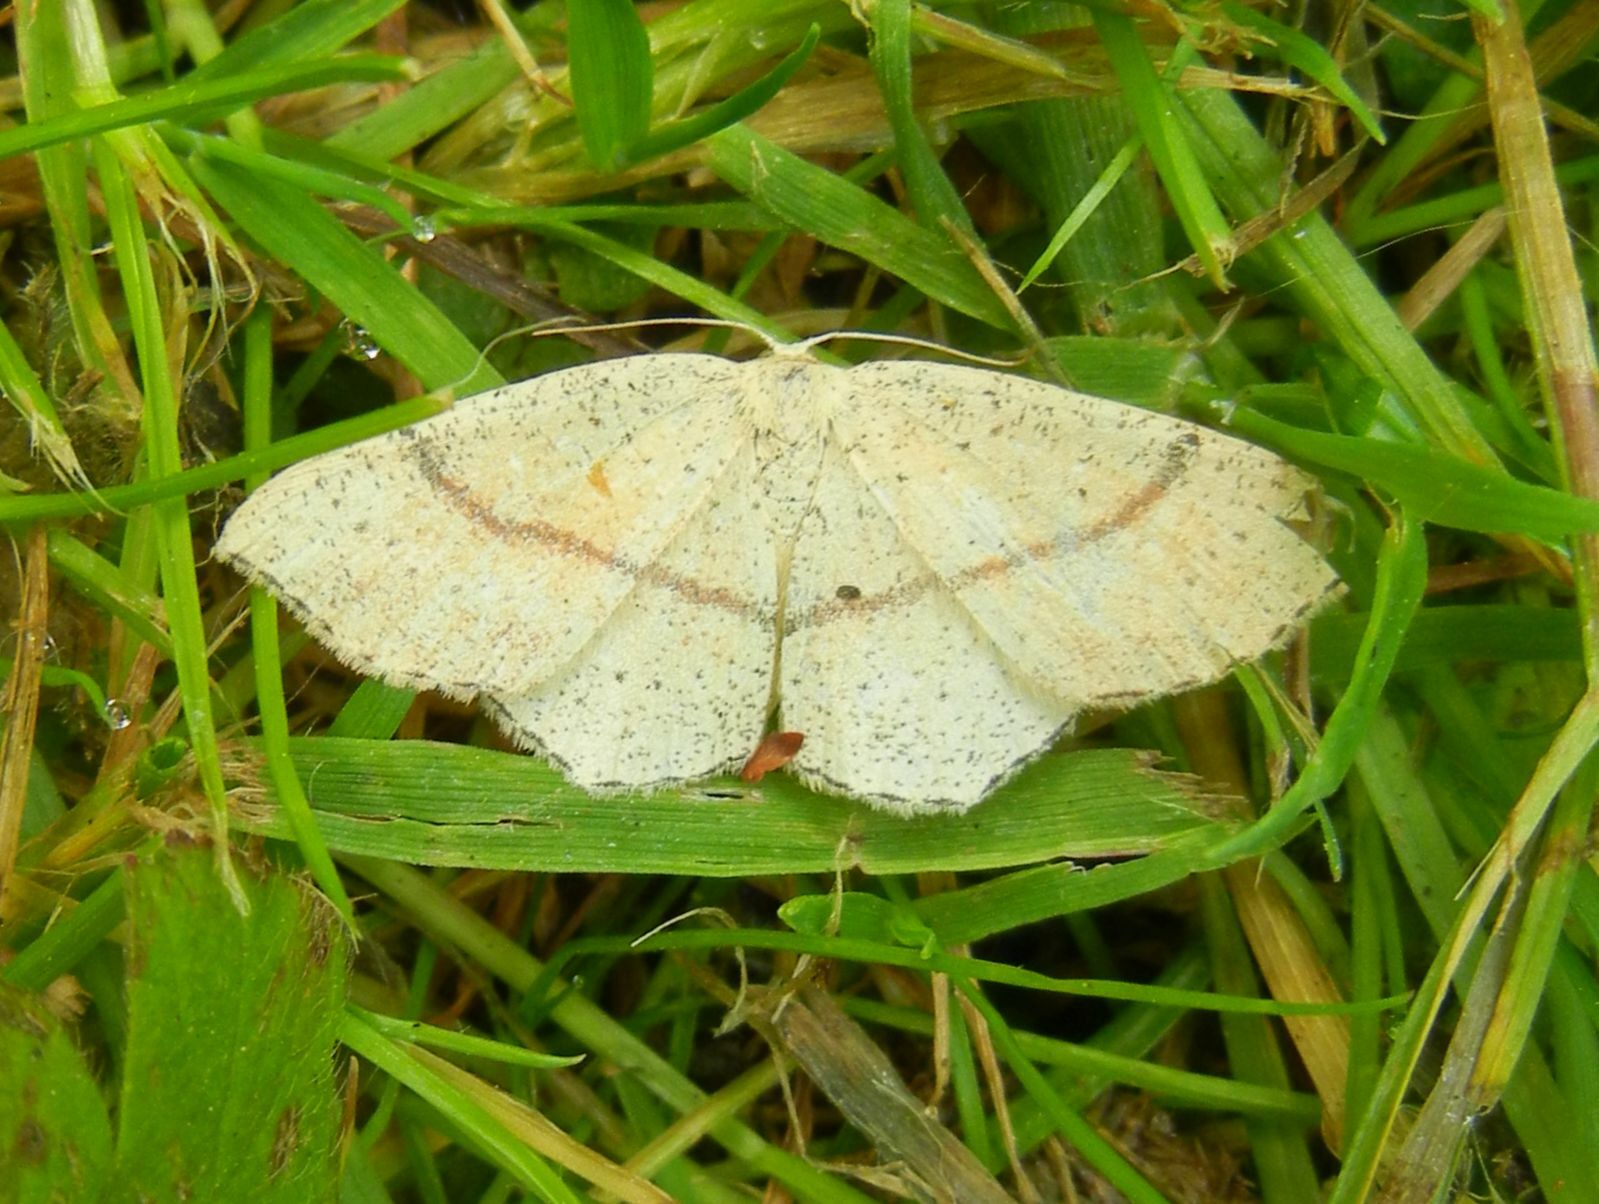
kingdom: Animalia
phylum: Arthropoda
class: Insecta
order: Lepidoptera
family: Geometridae
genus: Cyclophora
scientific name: Cyclophora punctaria
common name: Maiden's blush
